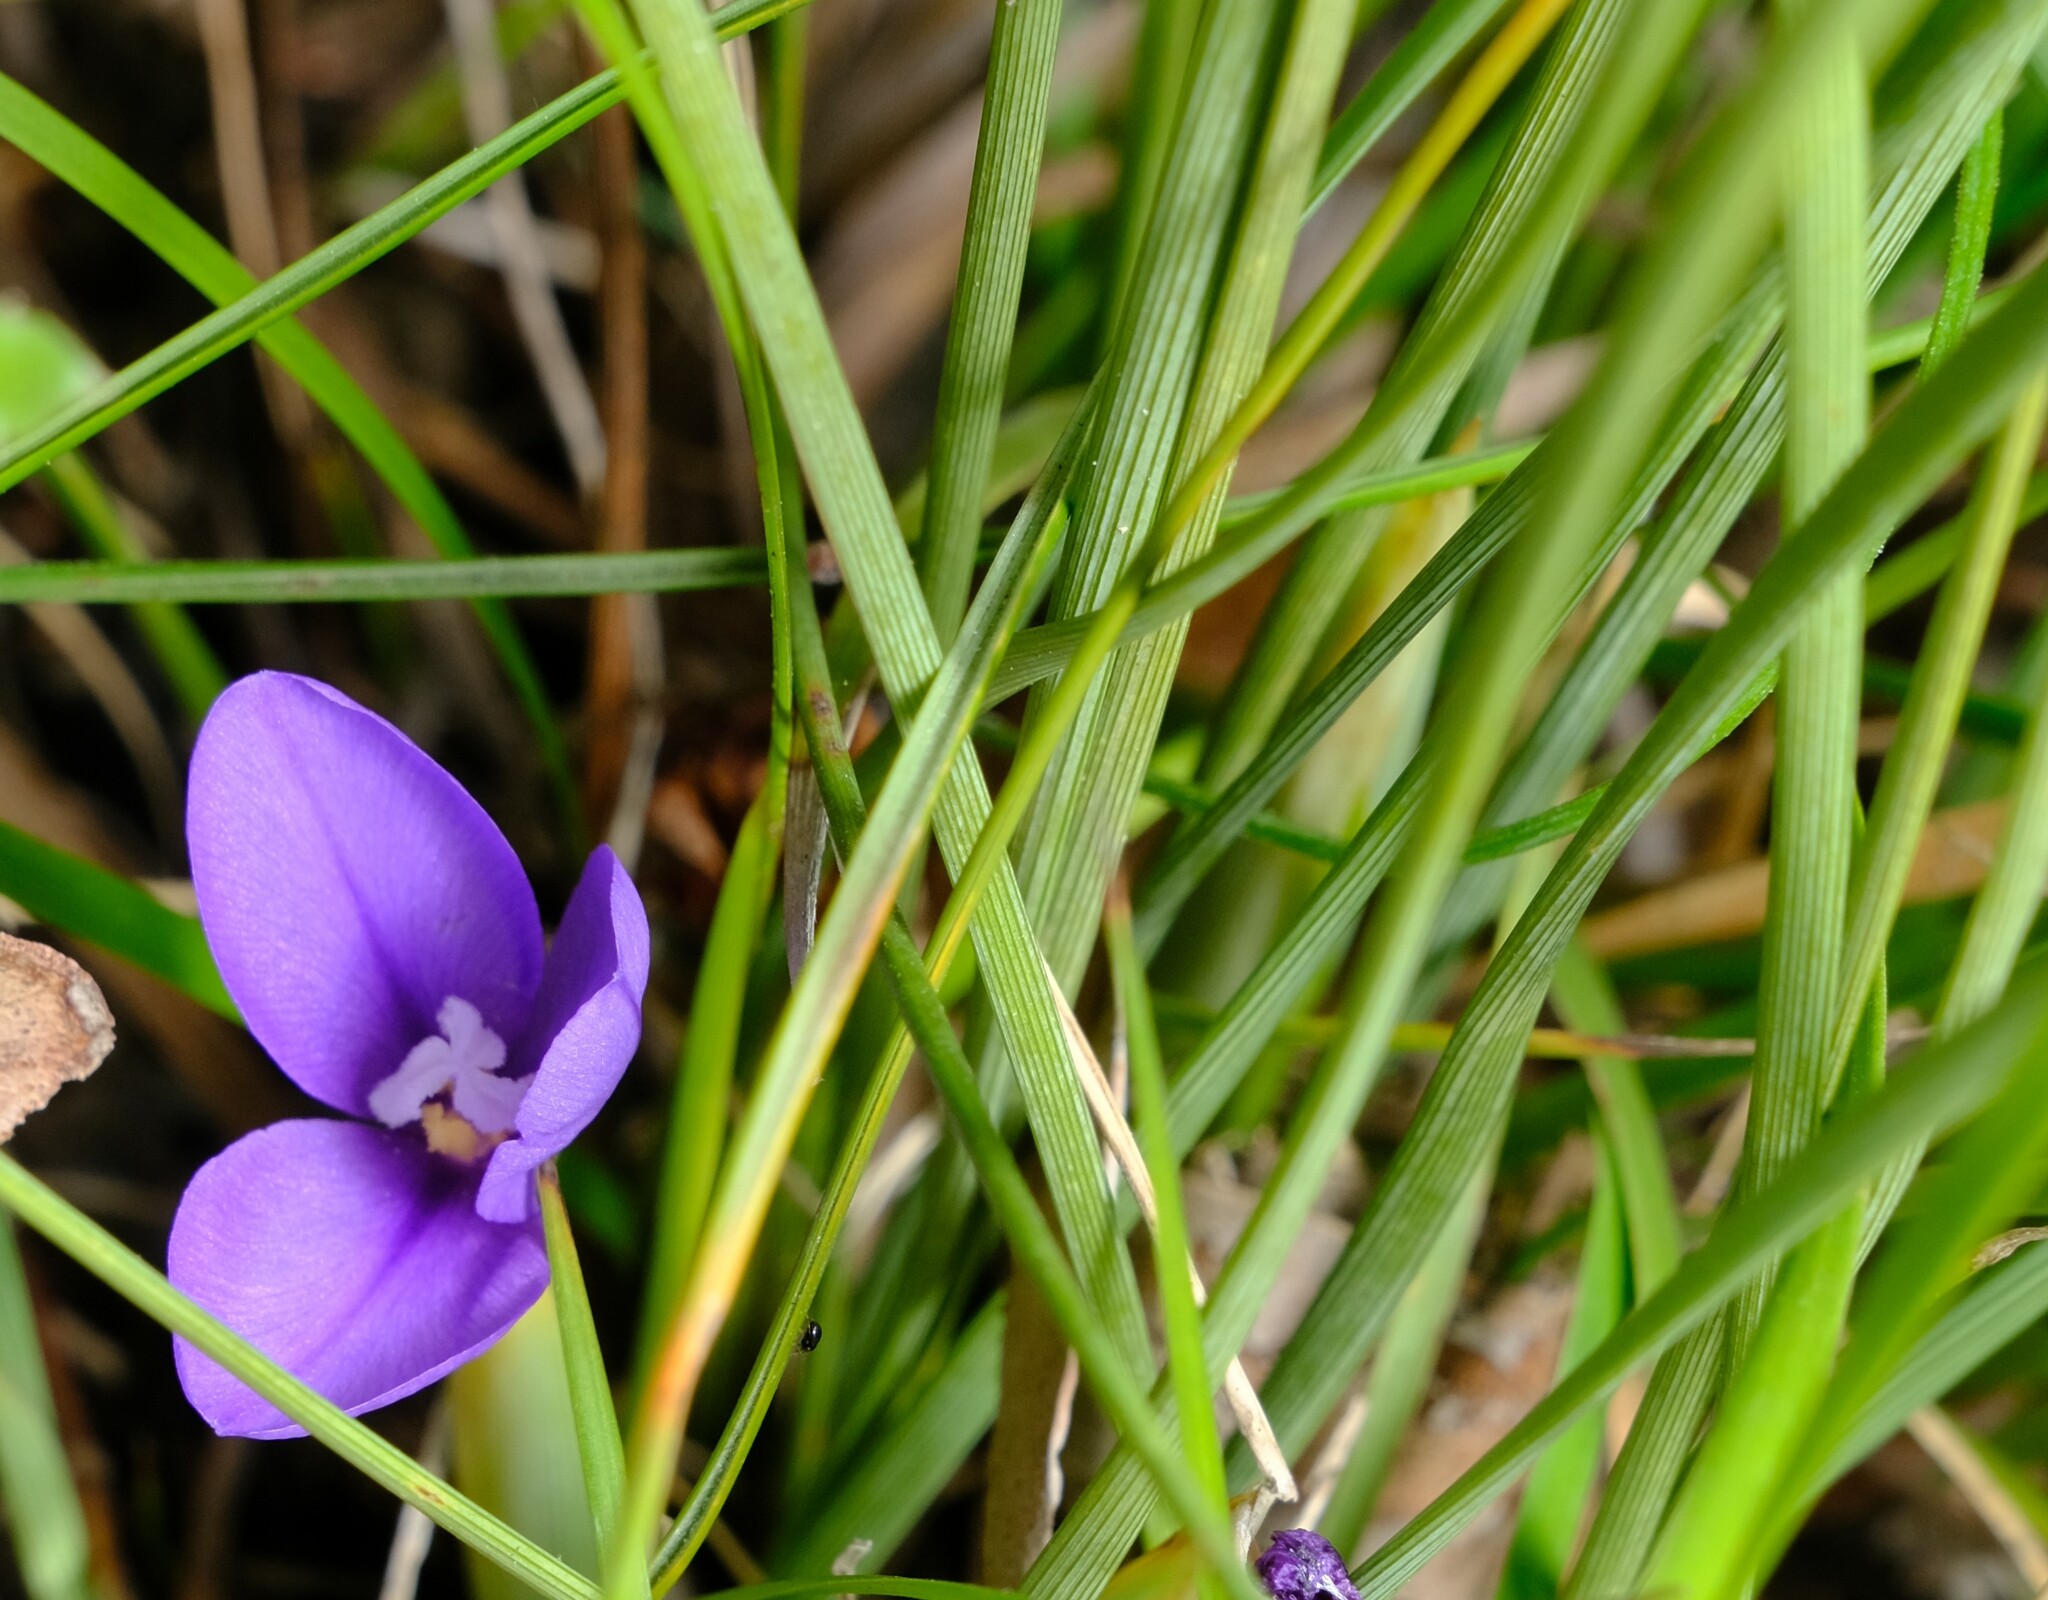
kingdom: Plantae
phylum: Tracheophyta
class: Liliopsida
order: Asparagales
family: Iridaceae
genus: Patersonia
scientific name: Patersonia fragilis
